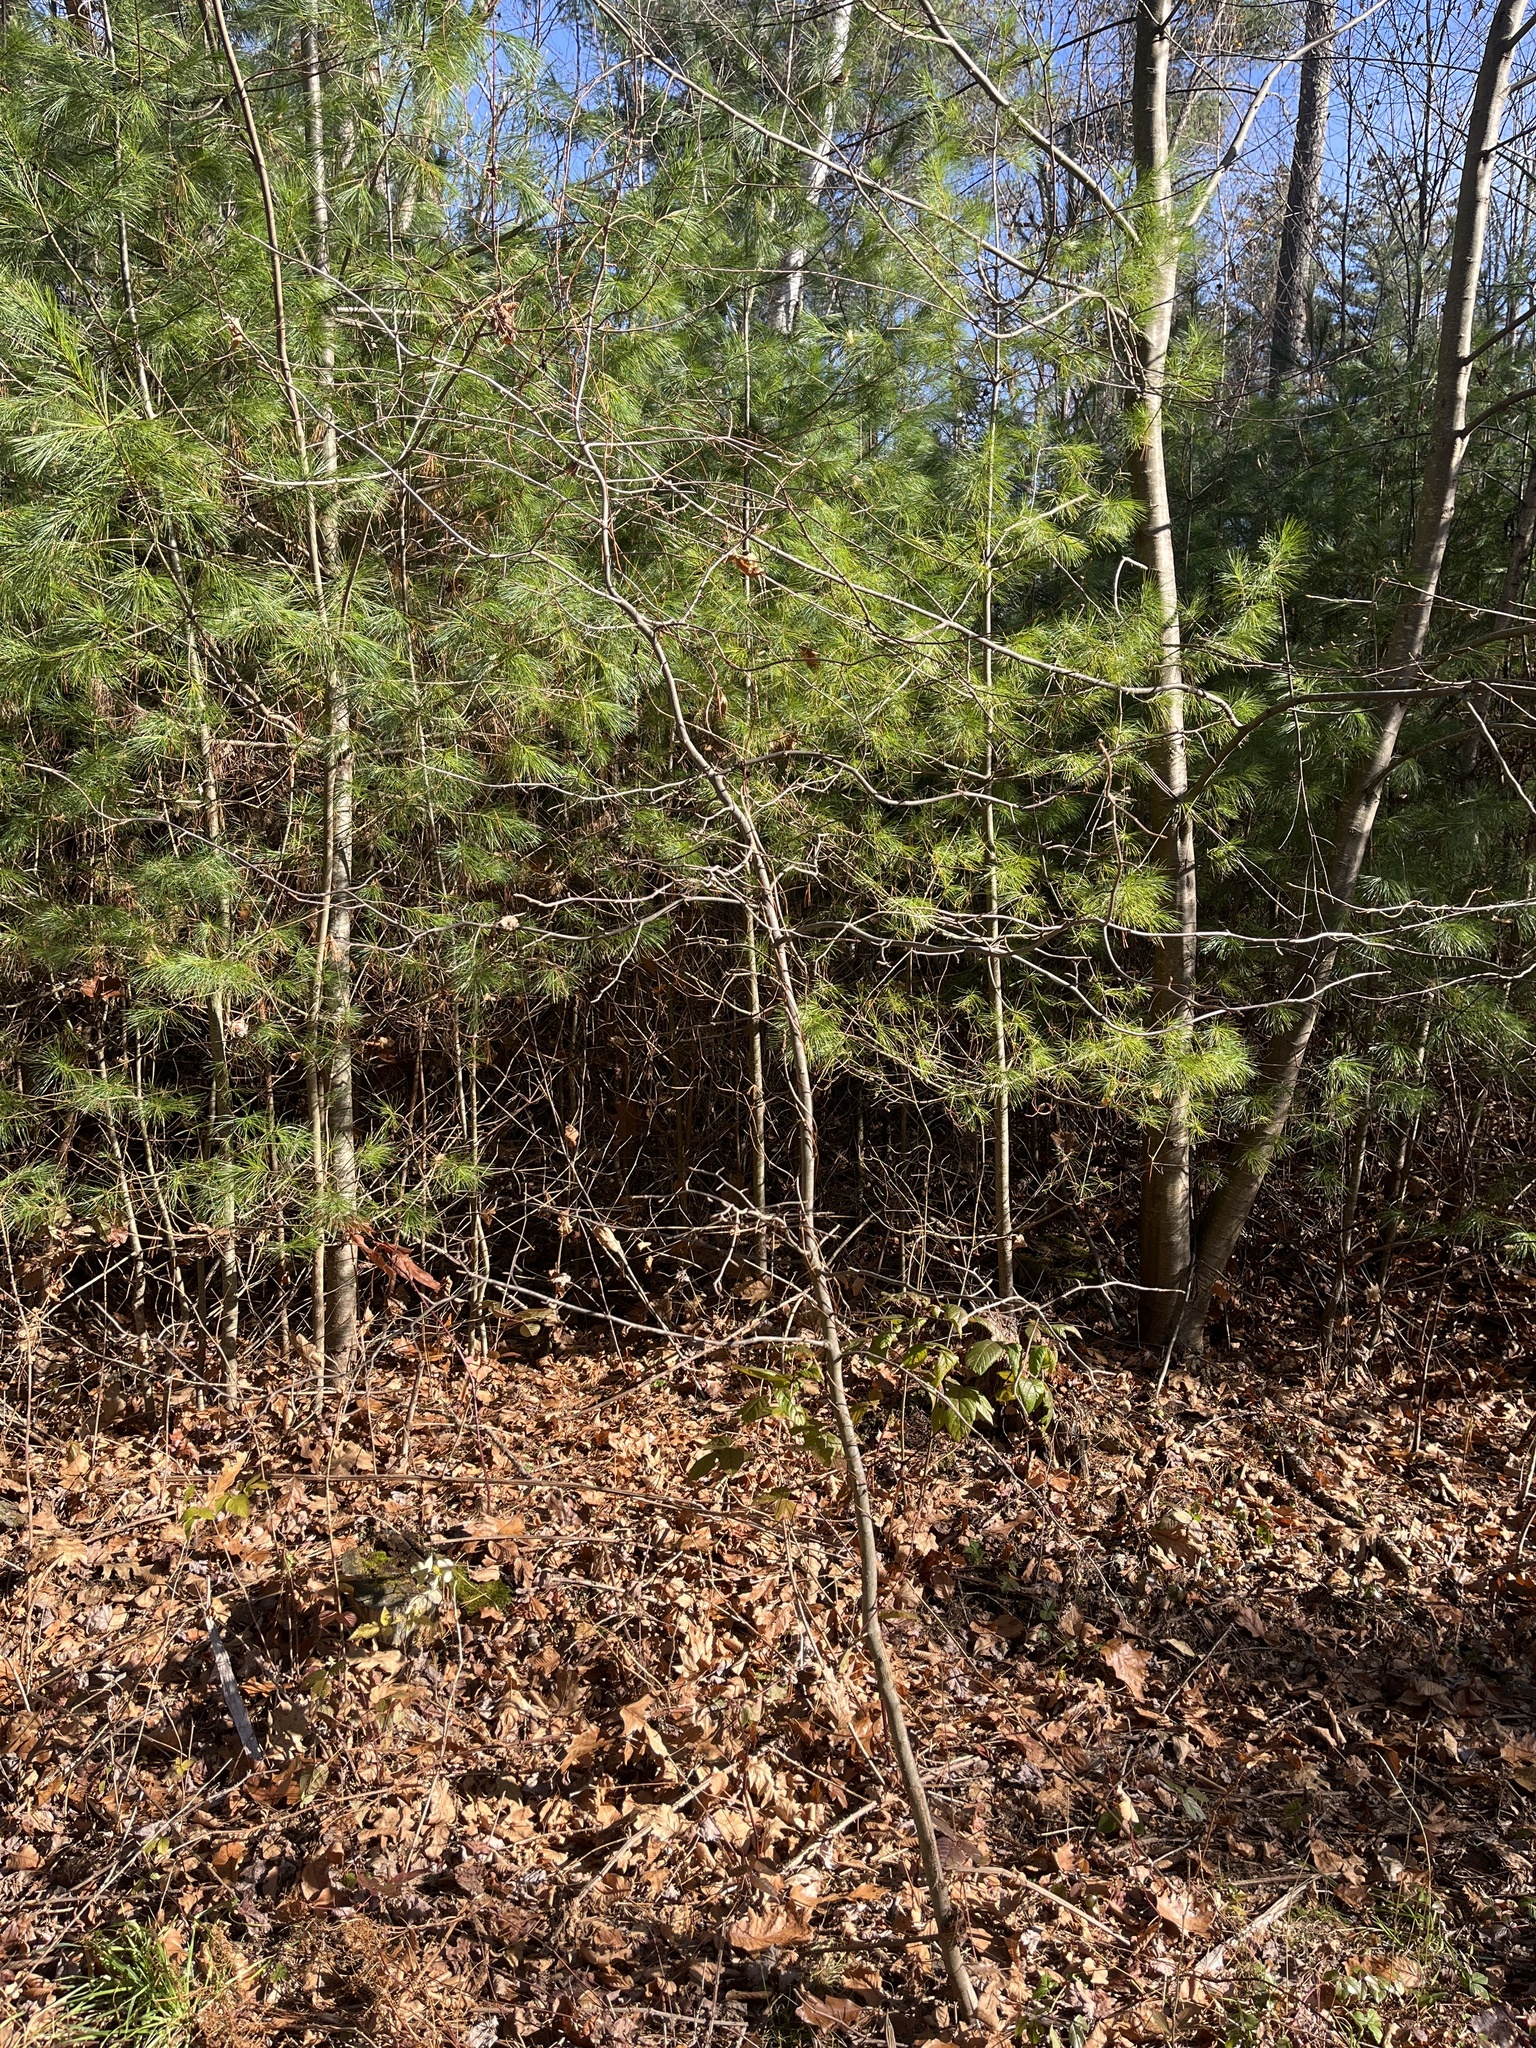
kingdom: Plantae
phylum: Tracheophyta
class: Magnoliopsida
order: Cornales
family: Nyssaceae
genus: Nyssa
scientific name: Nyssa sylvatica
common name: Black tupelo
